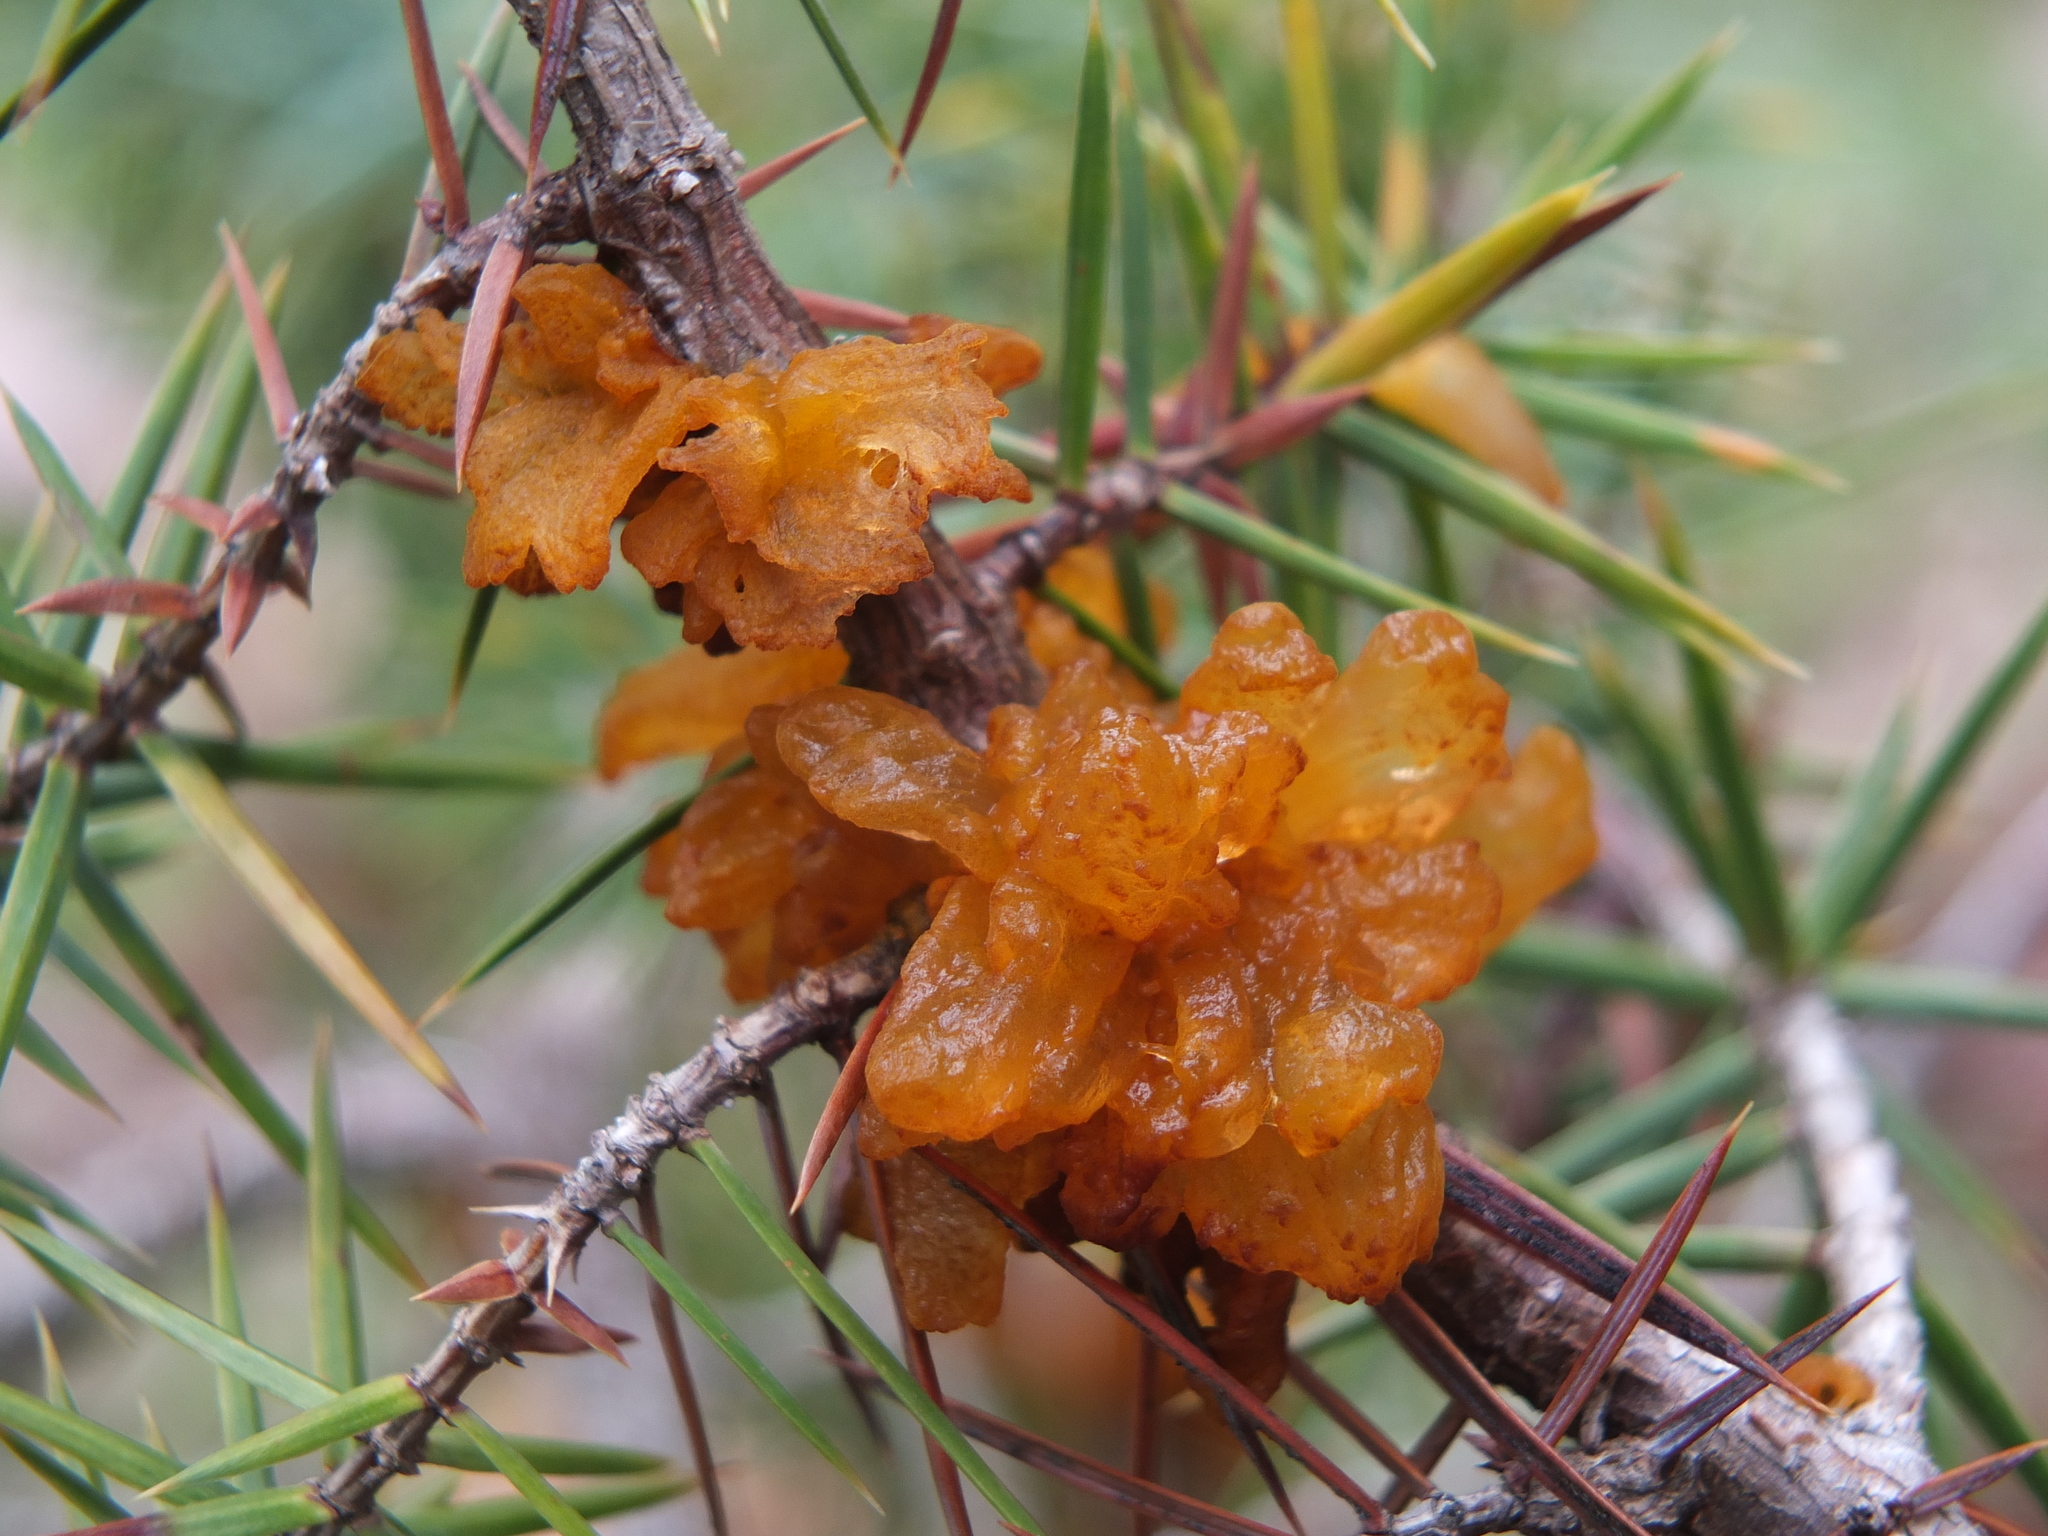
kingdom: Fungi
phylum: Basidiomycota
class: Pucciniomycetes
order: Pucciniales
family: Gymnosporangiaceae
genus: Gymnosporangium
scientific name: Gymnosporangium tremelloides
